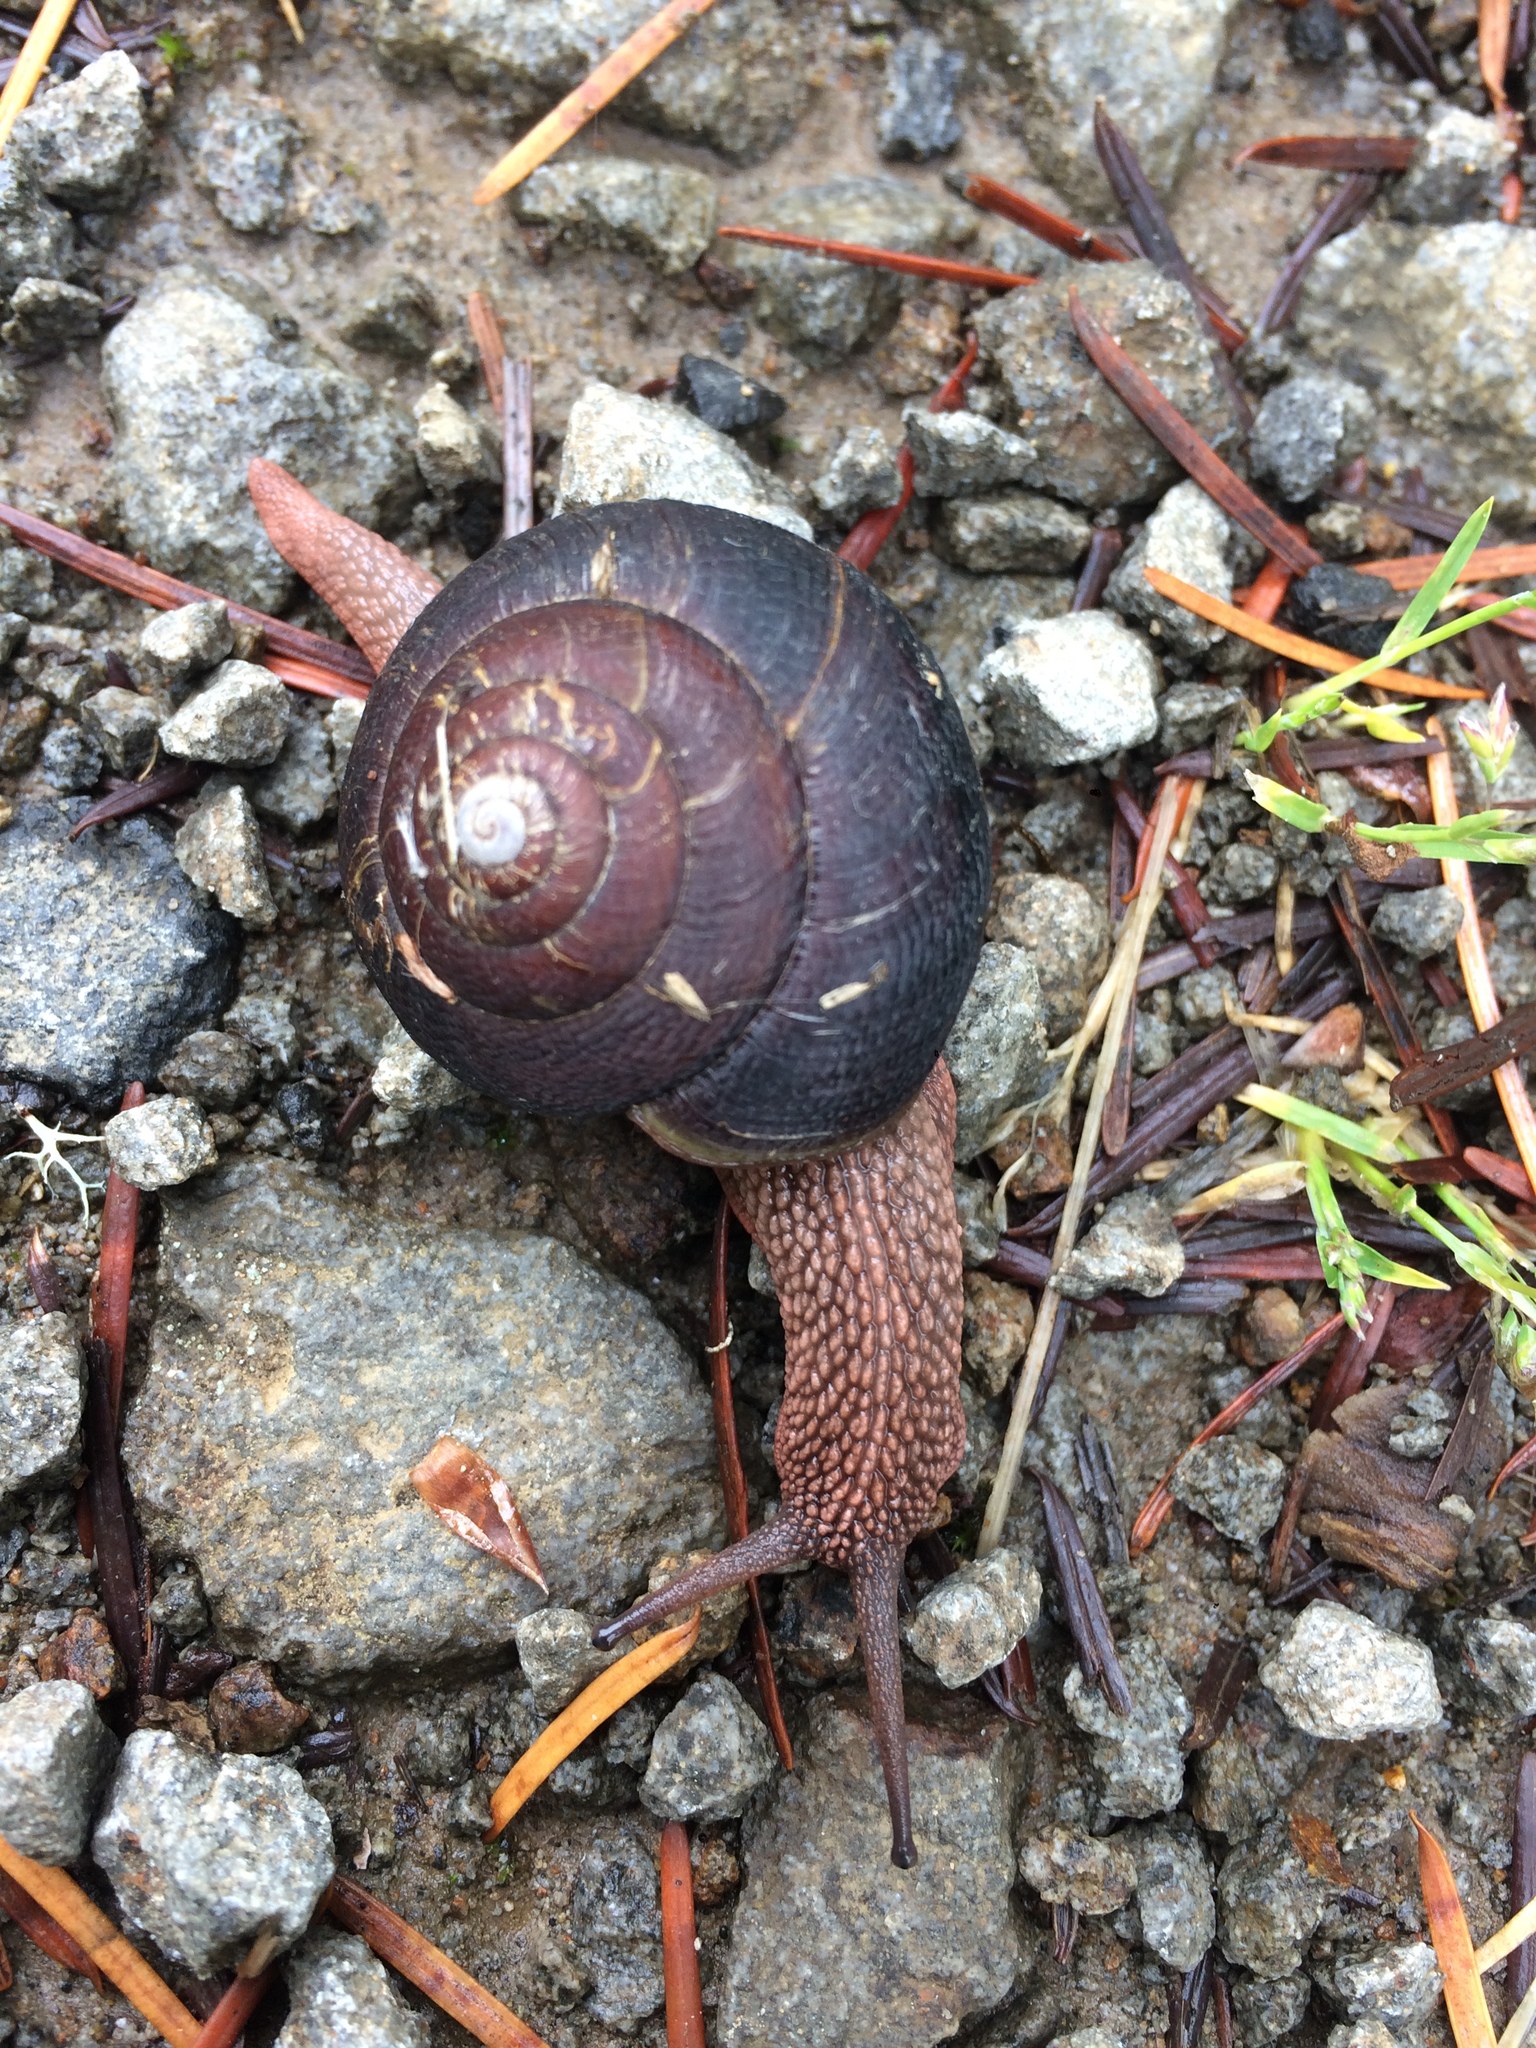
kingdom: Animalia
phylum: Mollusca
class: Gastropoda
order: Stylommatophora
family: Xanthonychidae
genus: Monadenia
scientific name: Monadenia fidelis
